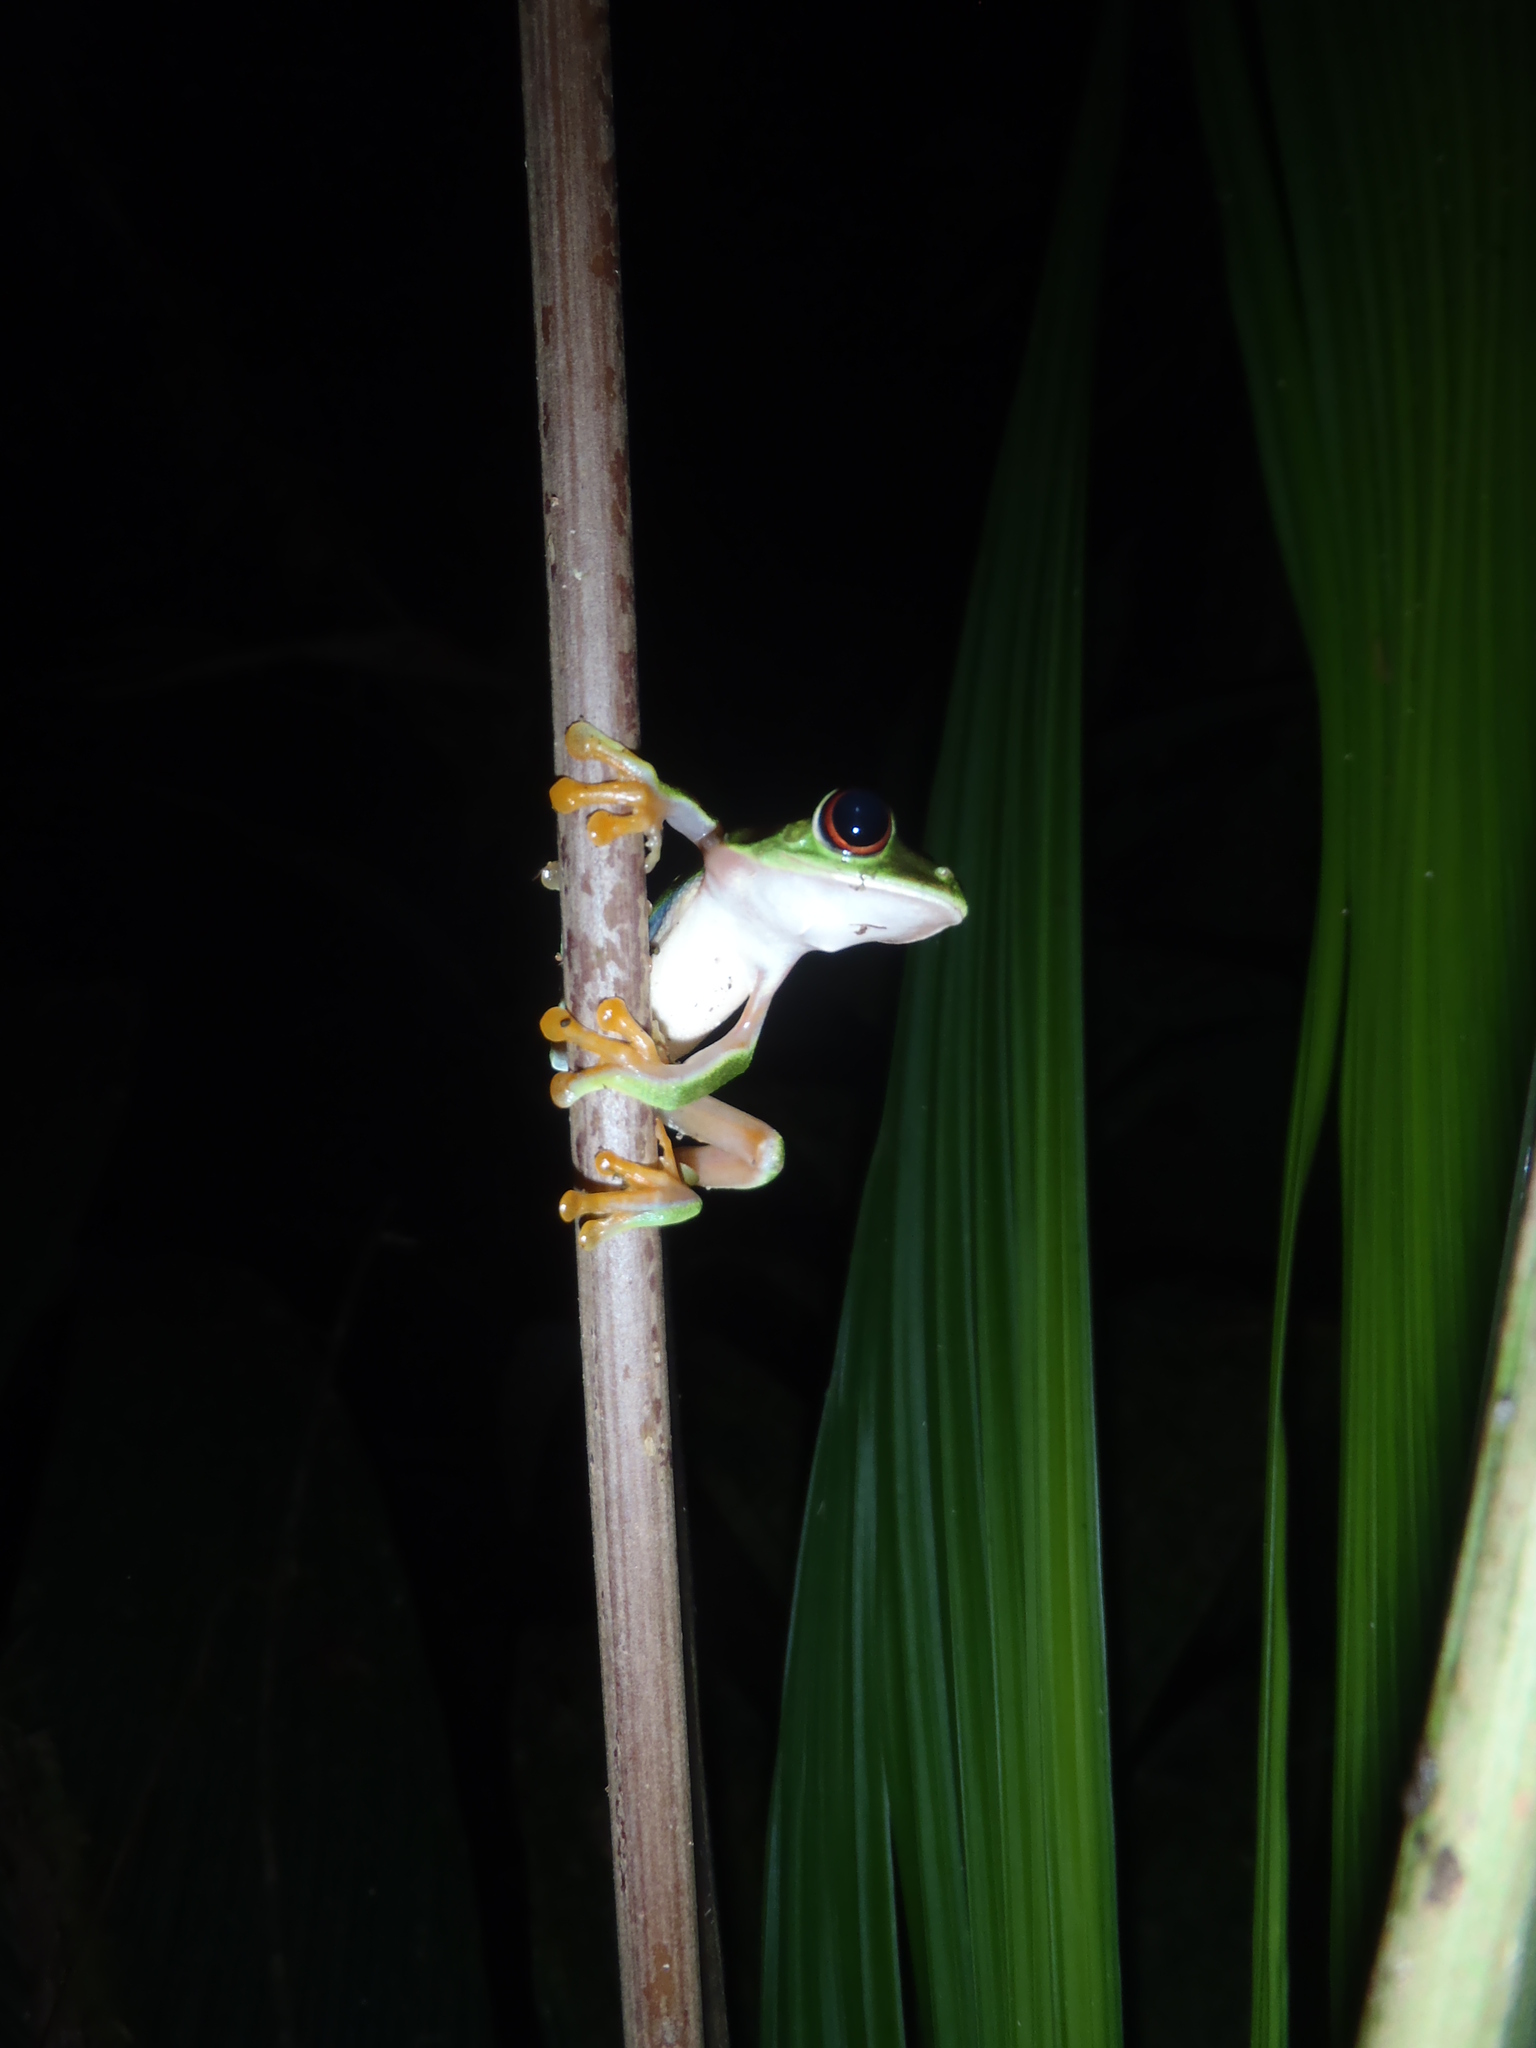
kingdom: Animalia
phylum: Chordata
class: Amphibia
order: Anura
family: Phyllomedusidae
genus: Agalychnis
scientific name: Agalychnis callidryas
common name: Red-eyed treefrog
